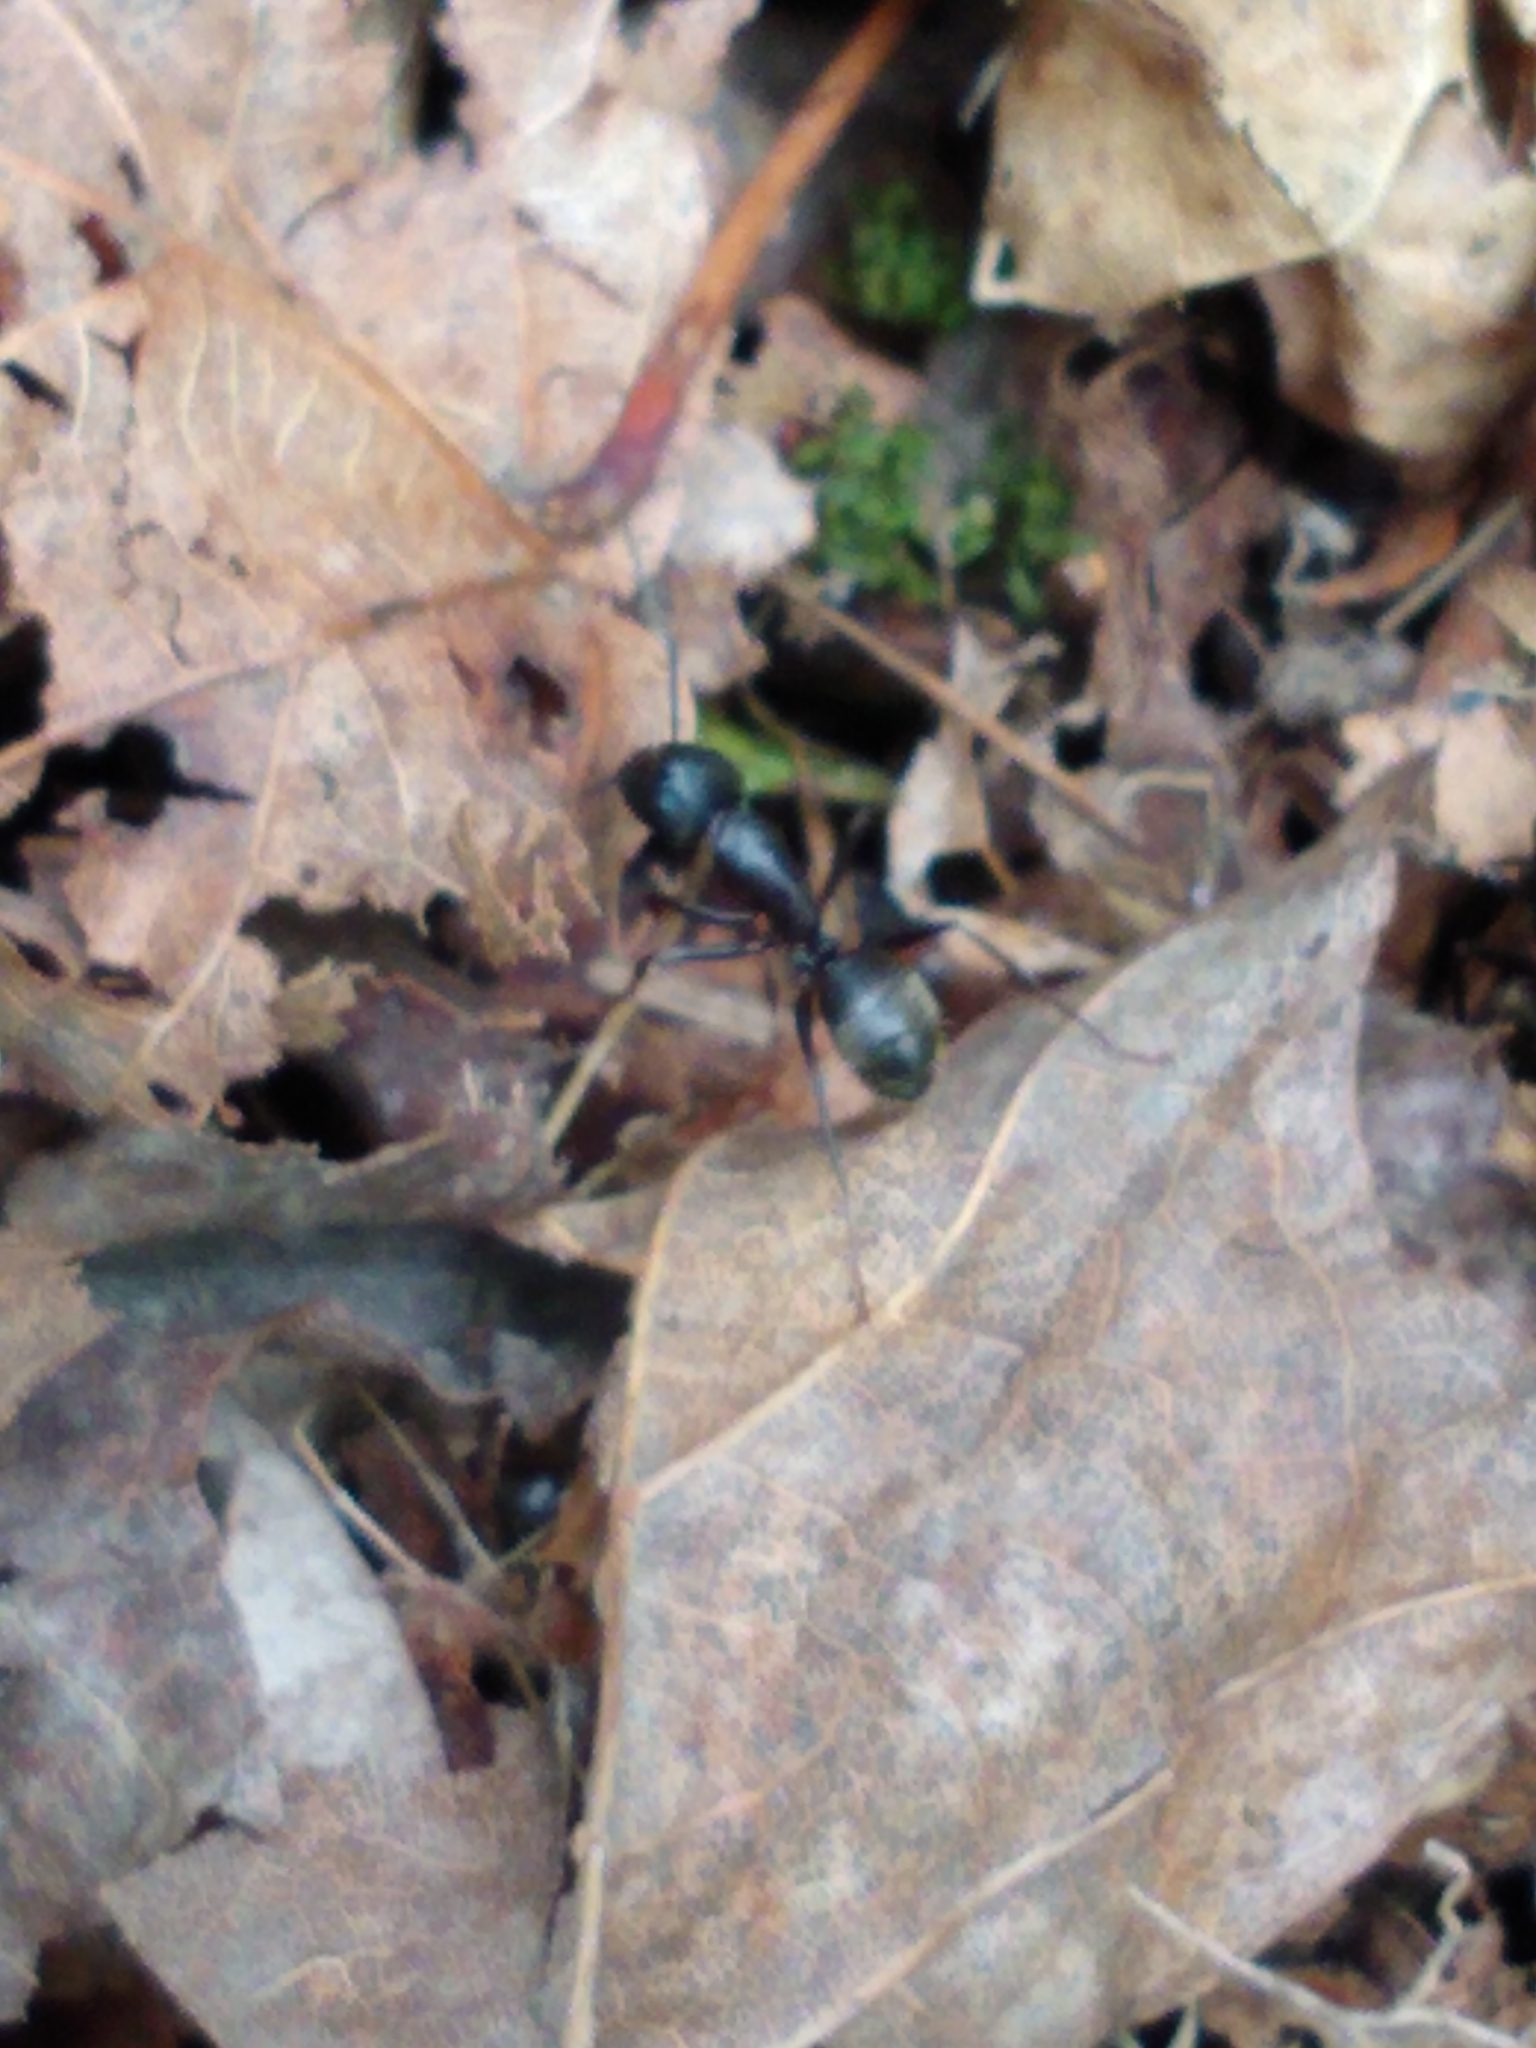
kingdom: Animalia
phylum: Arthropoda
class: Insecta
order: Hymenoptera
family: Formicidae
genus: Camponotus
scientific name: Camponotus pennsylvanicus
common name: Black carpenter ant
